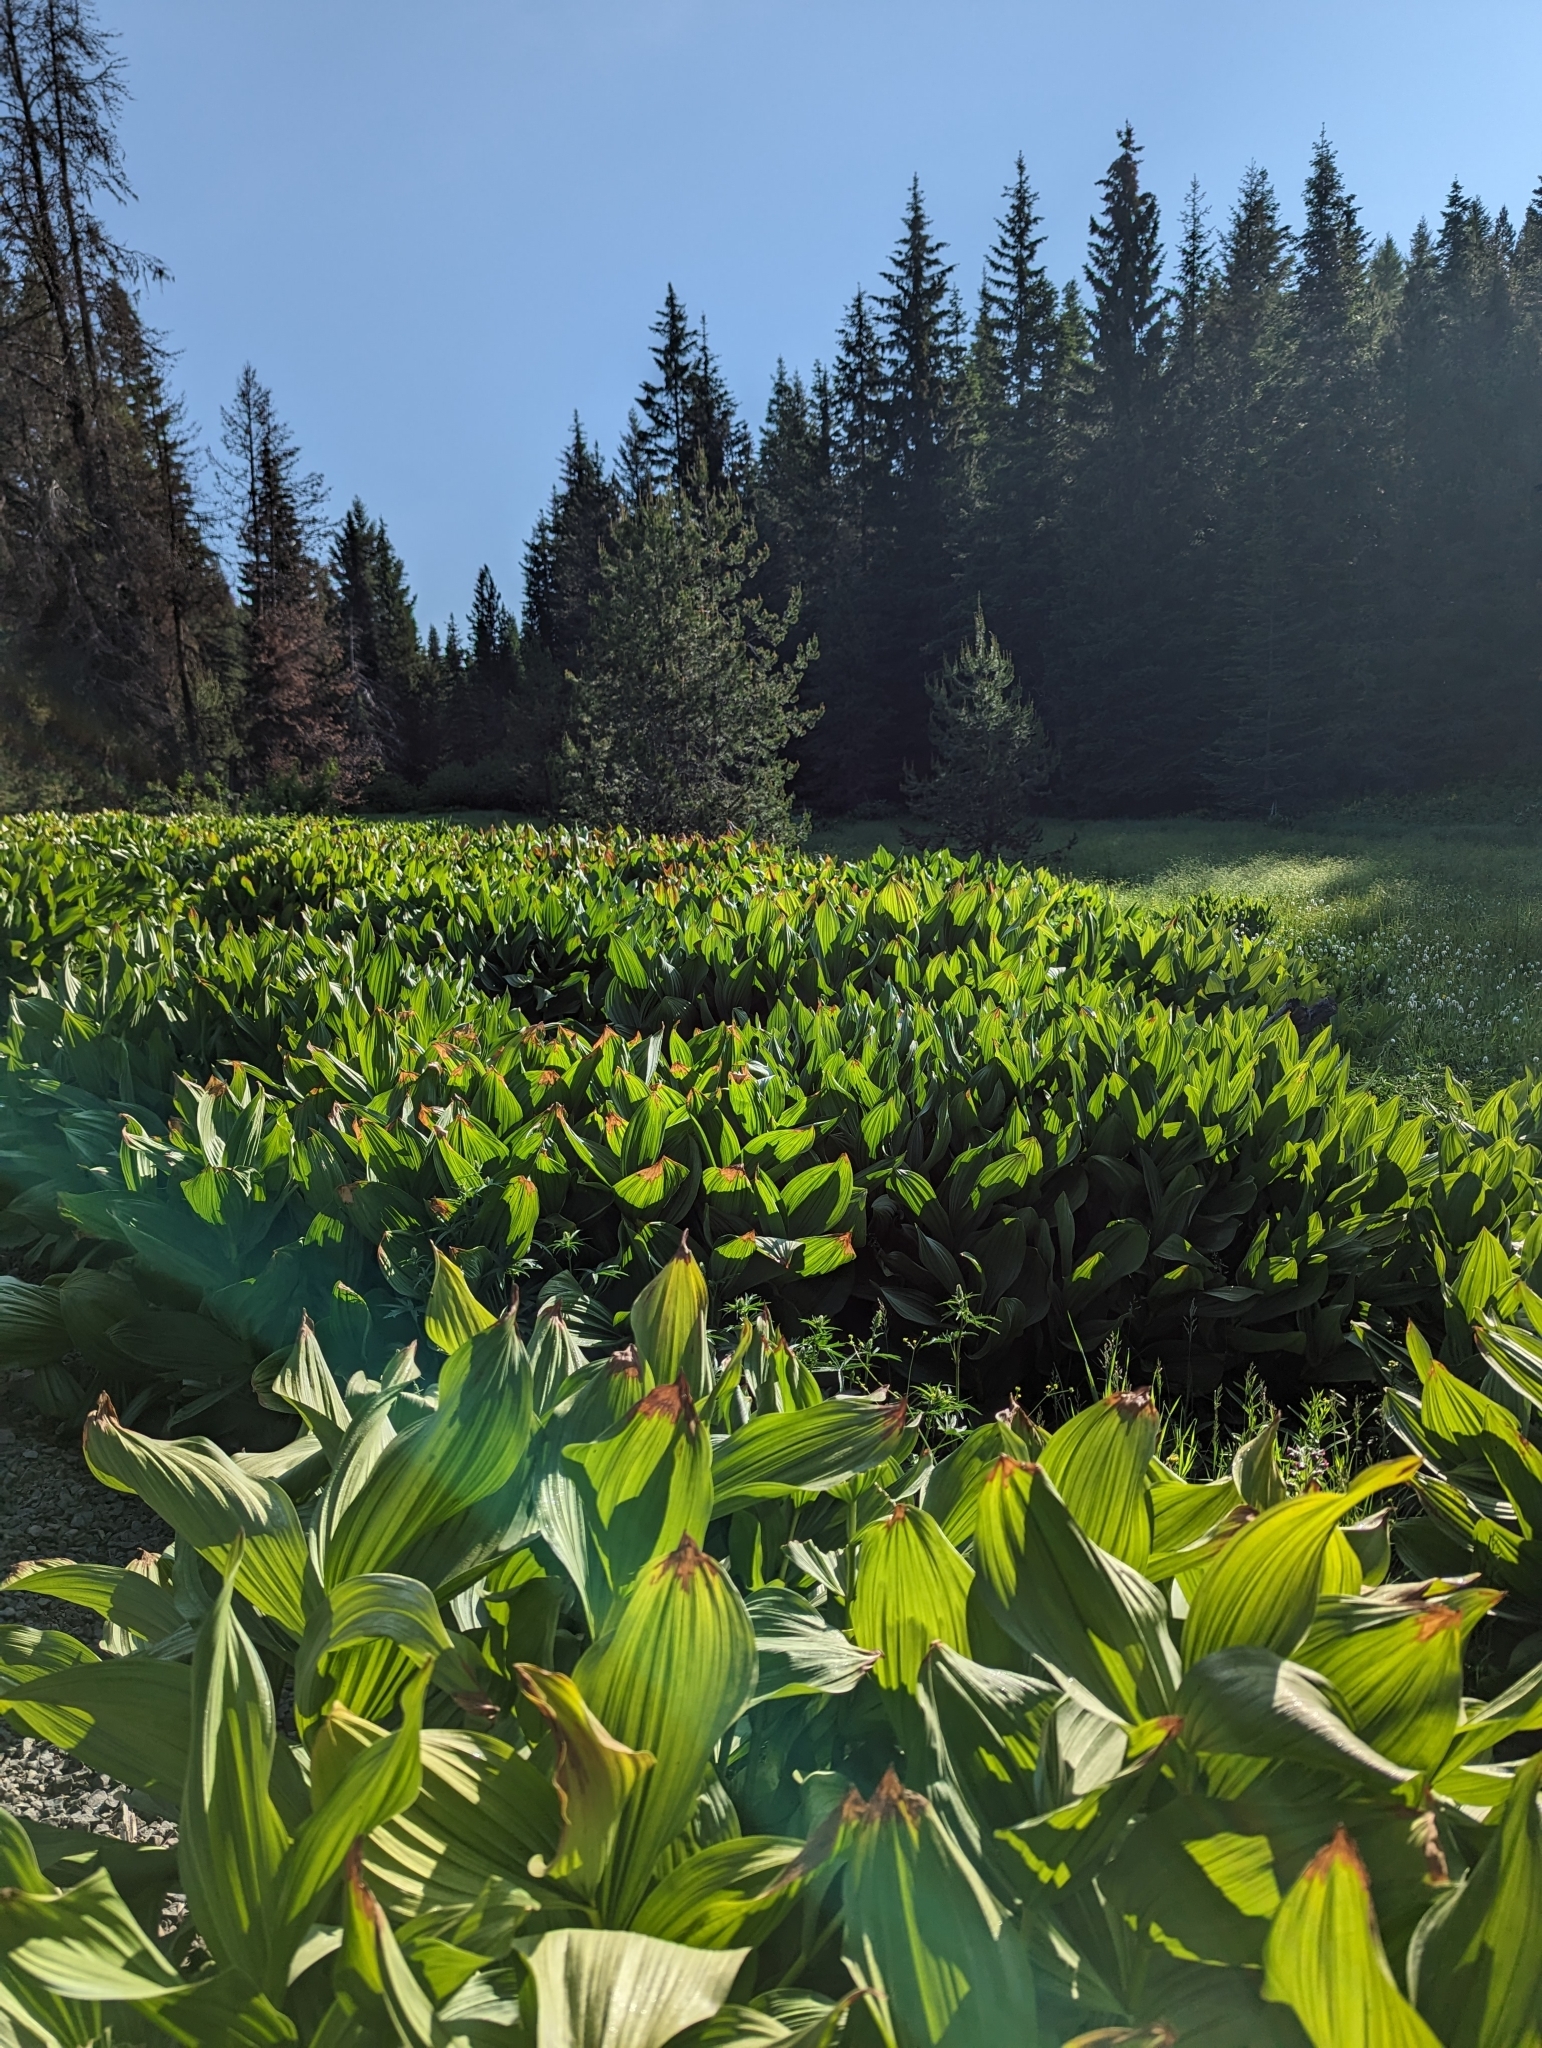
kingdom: Plantae
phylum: Tracheophyta
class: Liliopsida
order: Liliales
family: Melanthiaceae
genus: Veratrum
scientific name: Veratrum californicum
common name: California veratrum
